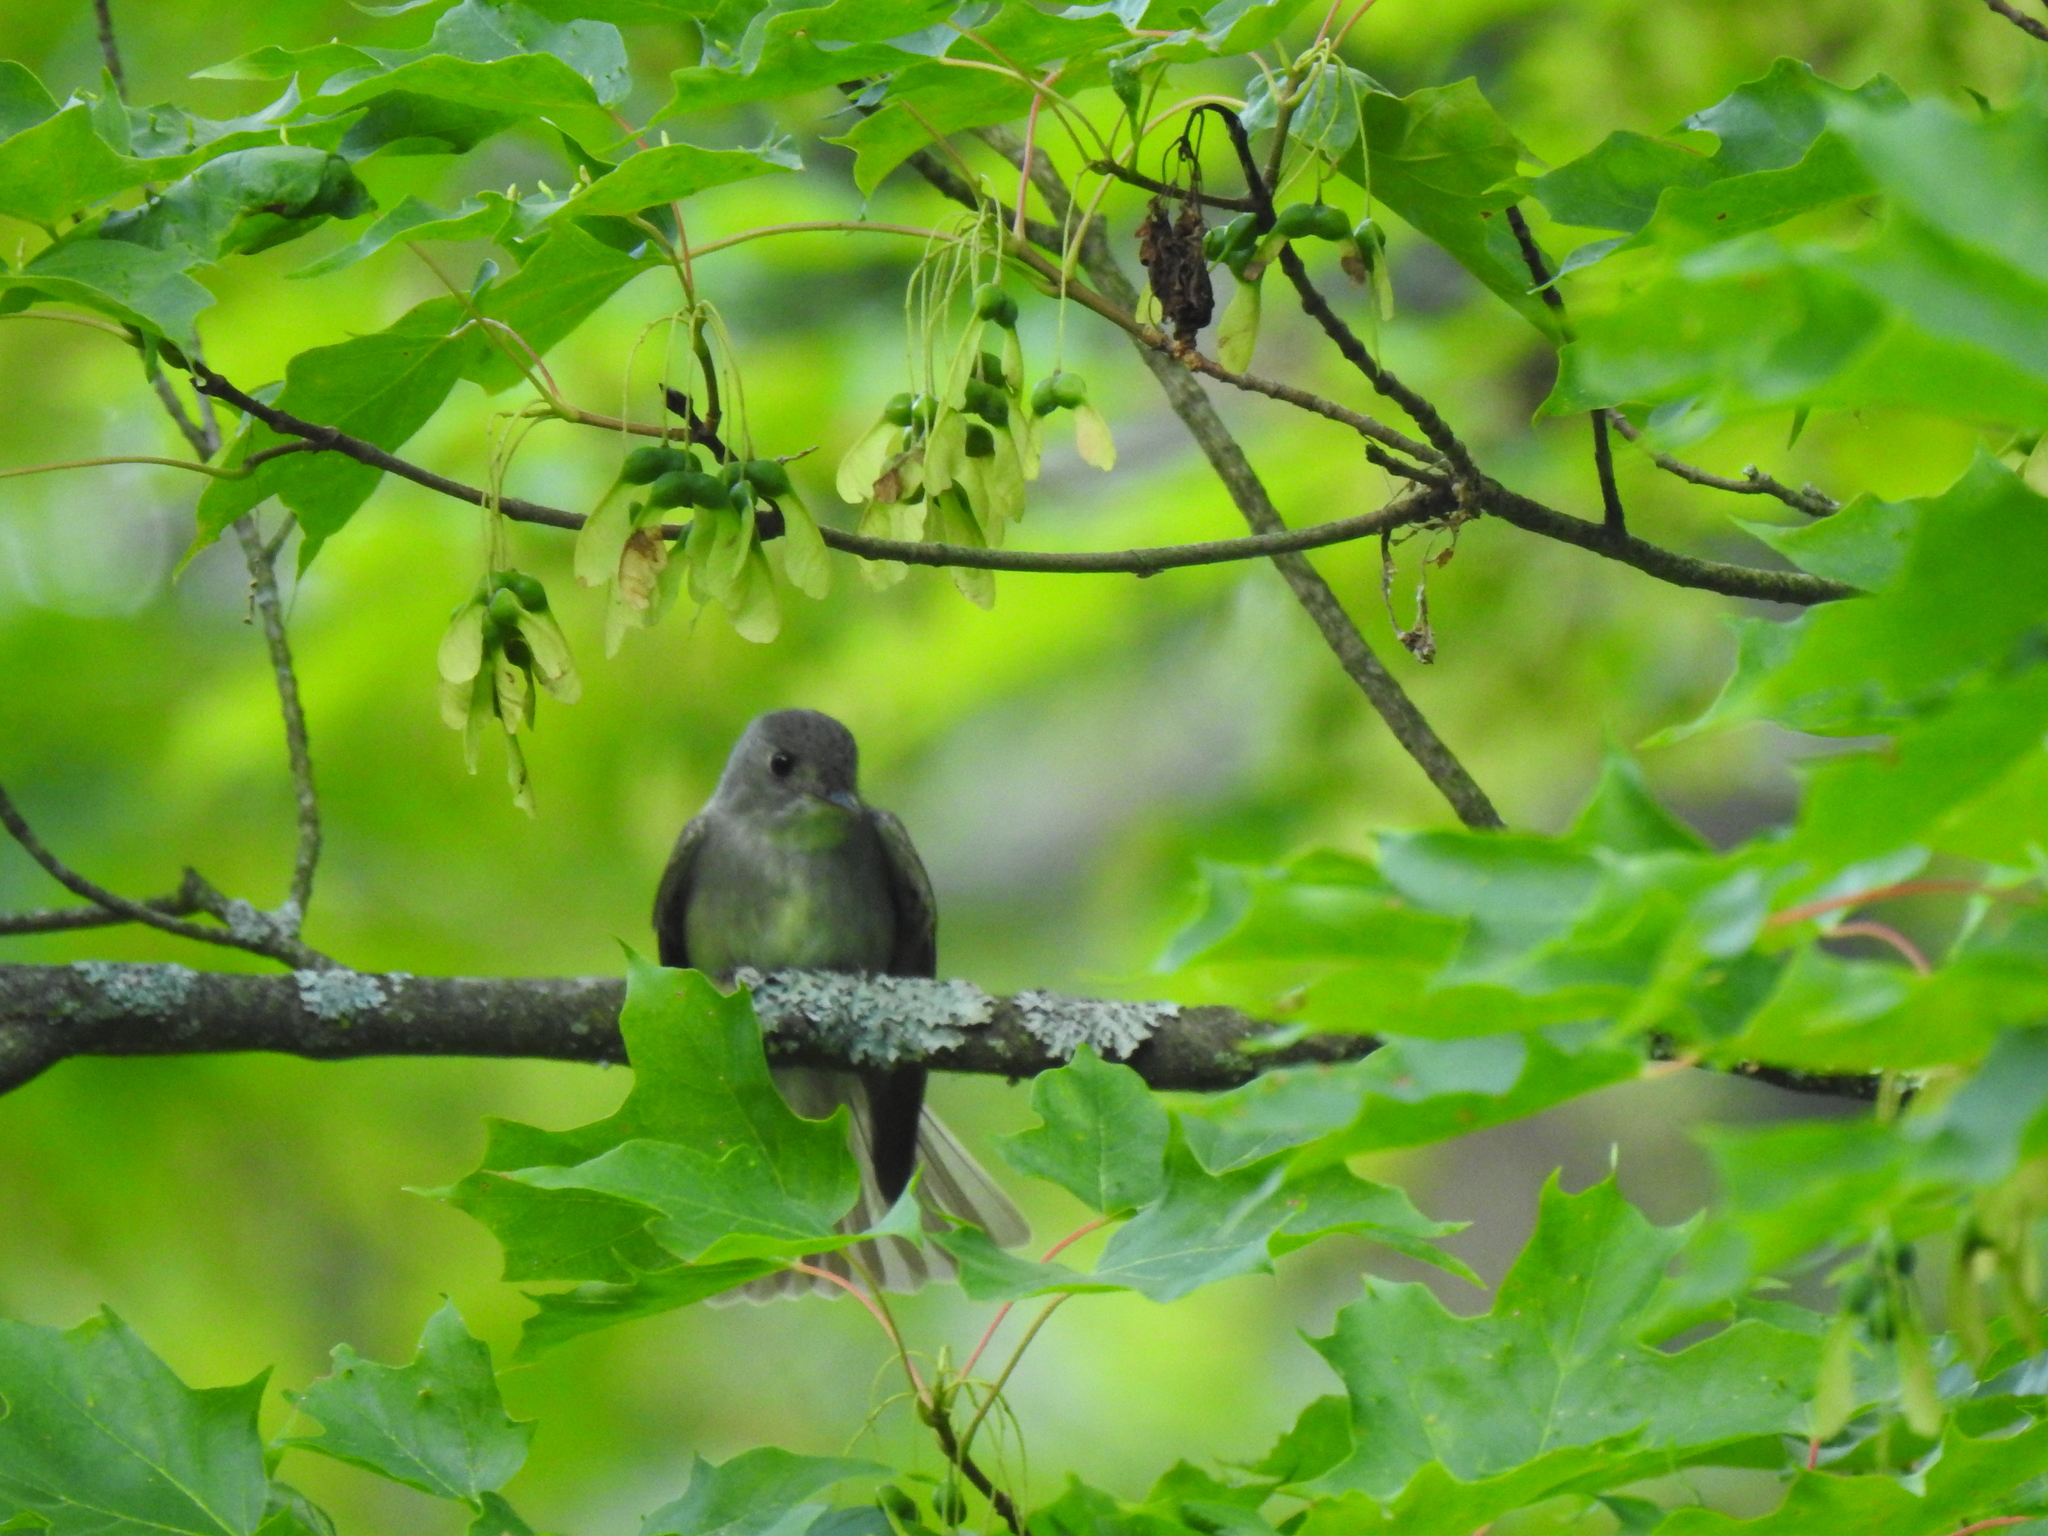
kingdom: Animalia
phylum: Chordata
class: Aves
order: Passeriformes
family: Tyrannidae
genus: Contopus
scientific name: Contopus virens
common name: Eastern wood-pewee
